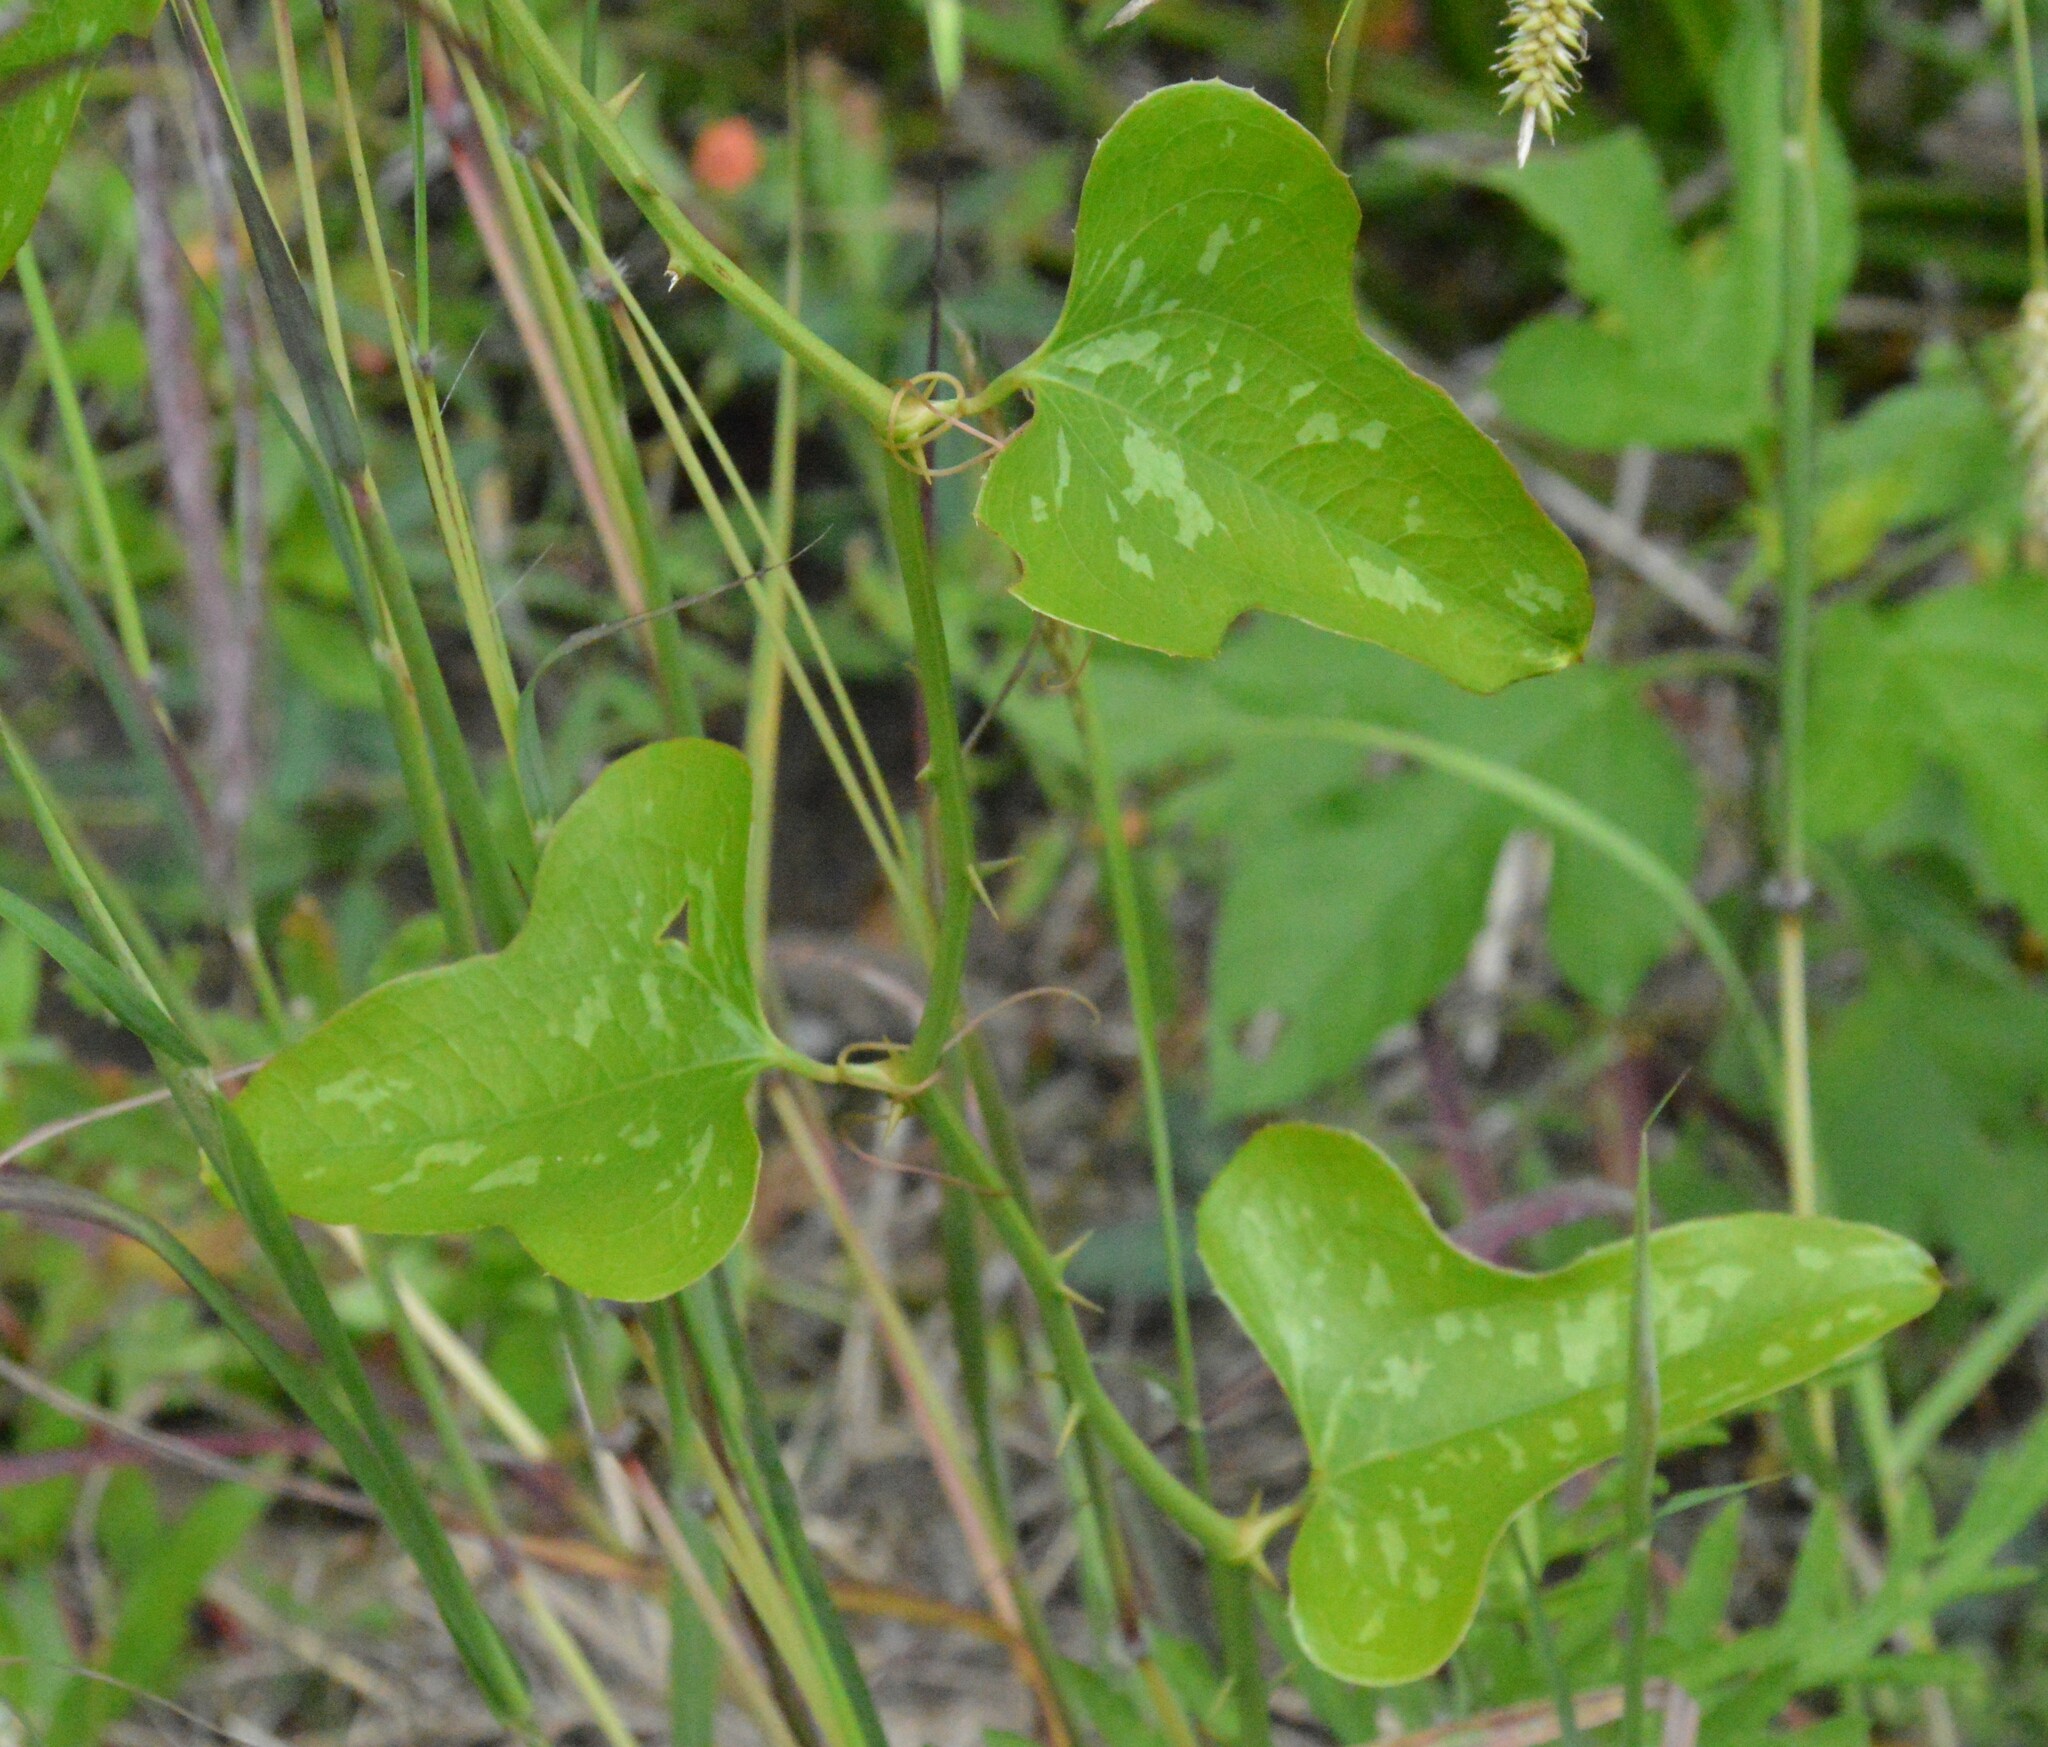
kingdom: Plantae
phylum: Tracheophyta
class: Liliopsida
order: Liliales
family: Smilacaceae
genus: Smilax
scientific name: Smilax bona-nox
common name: Catbrier
